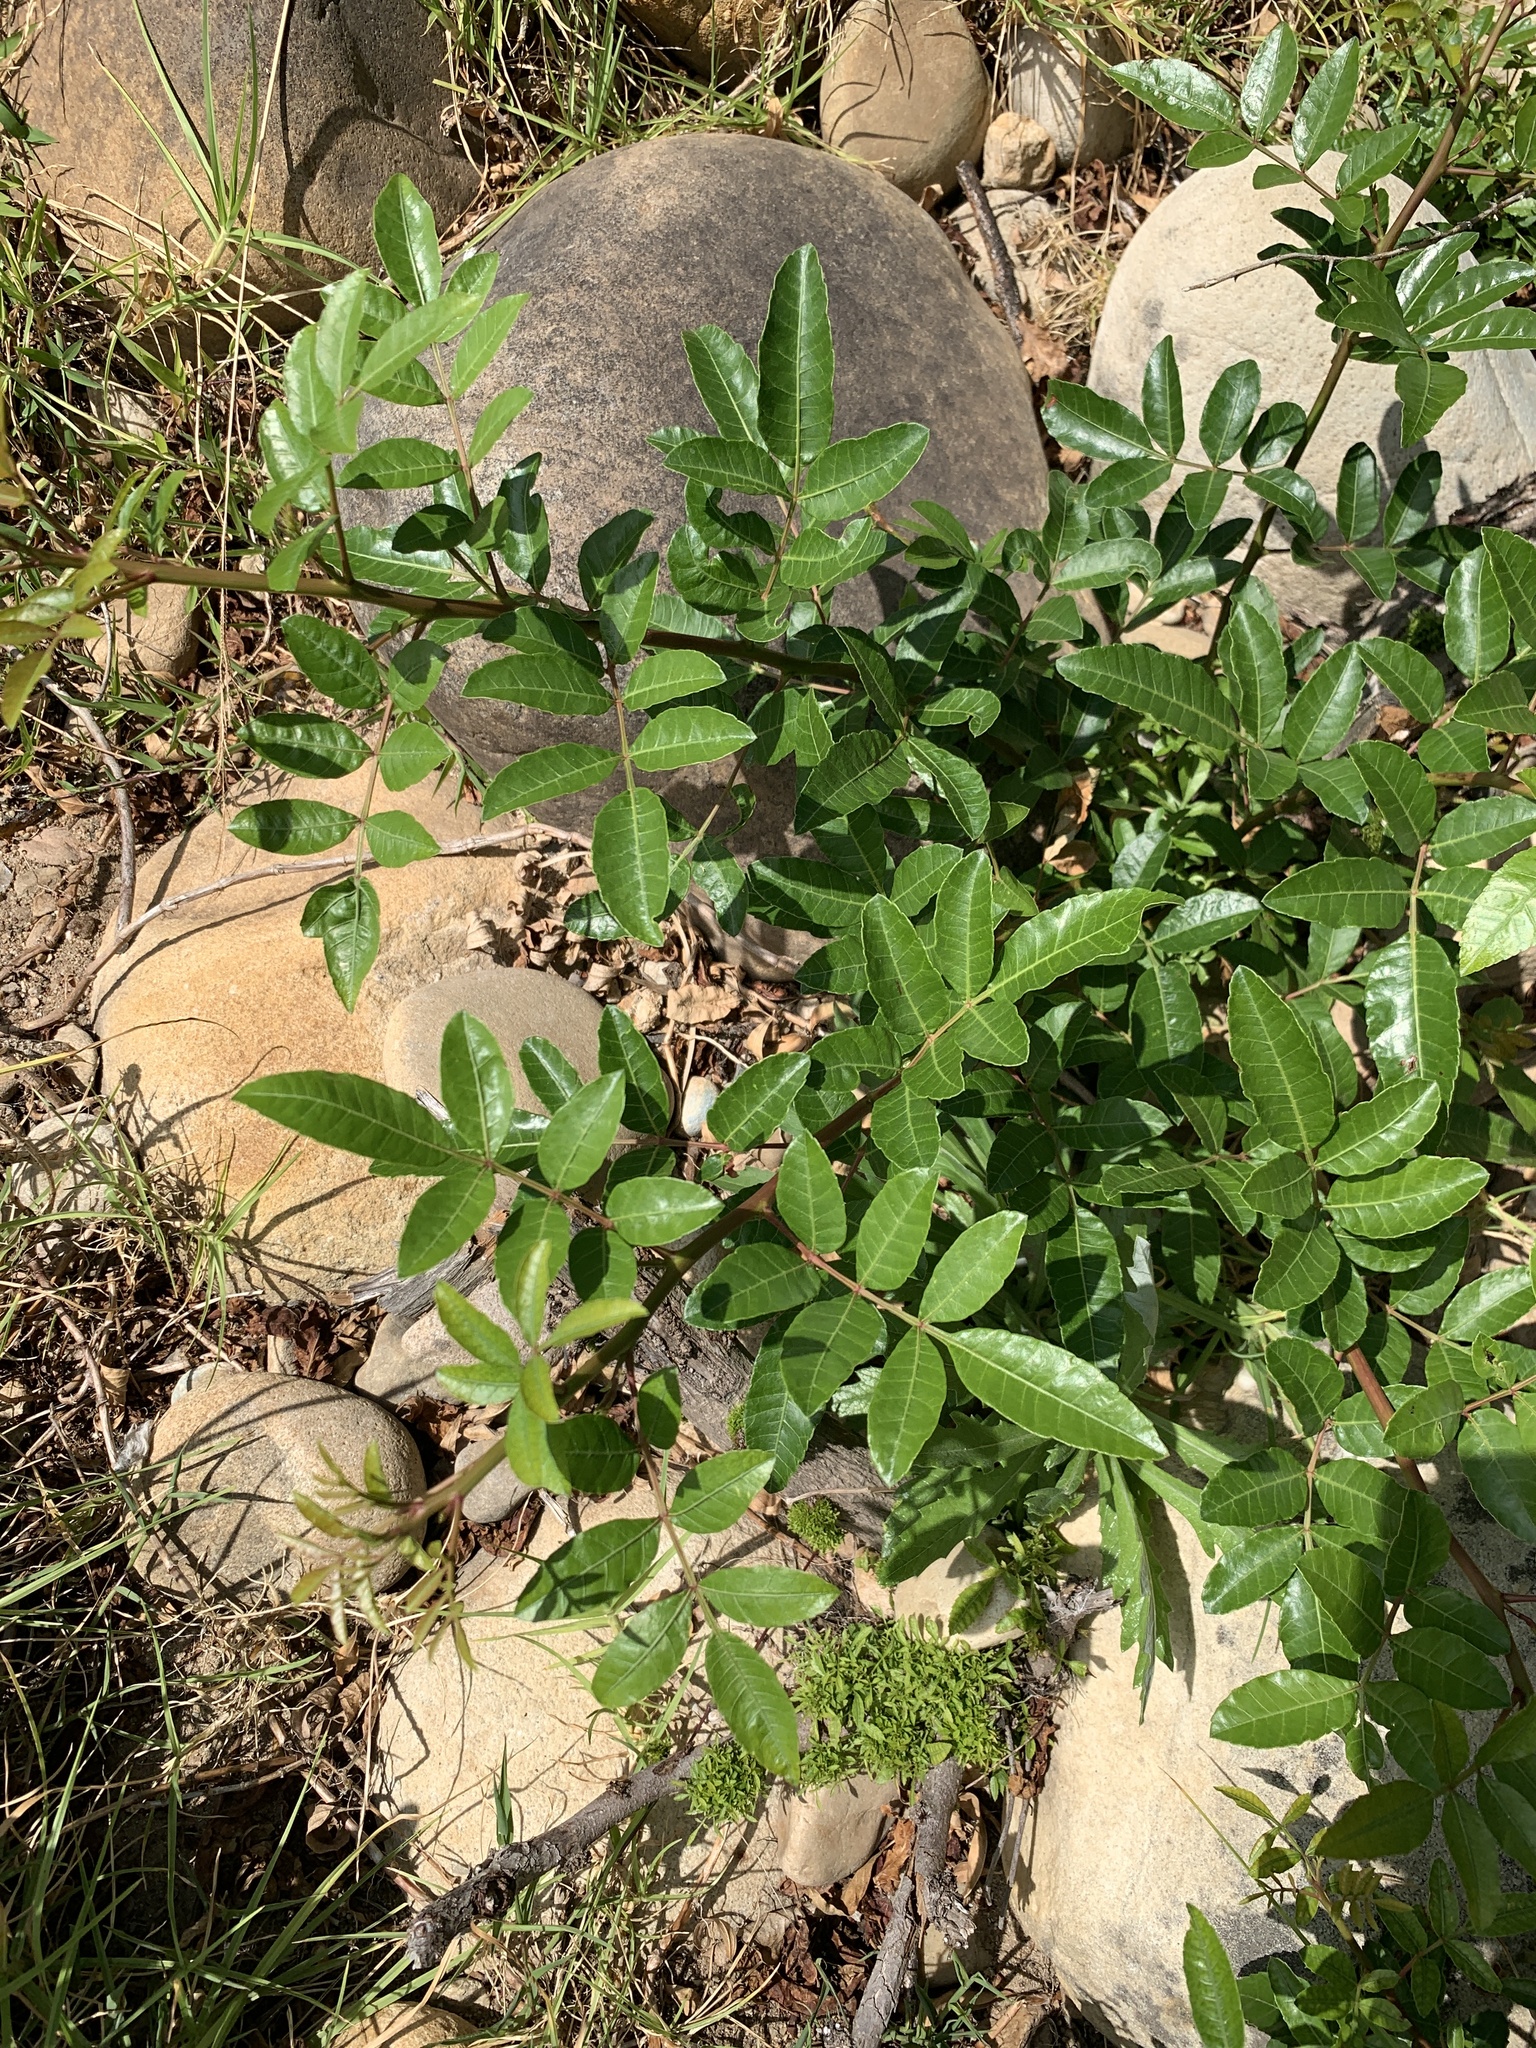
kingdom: Plantae
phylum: Tracheophyta
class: Magnoliopsida
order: Sapindales
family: Anacardiaceae
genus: Schinus
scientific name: Schinus terebinthifolia
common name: Brazilian peppertree
